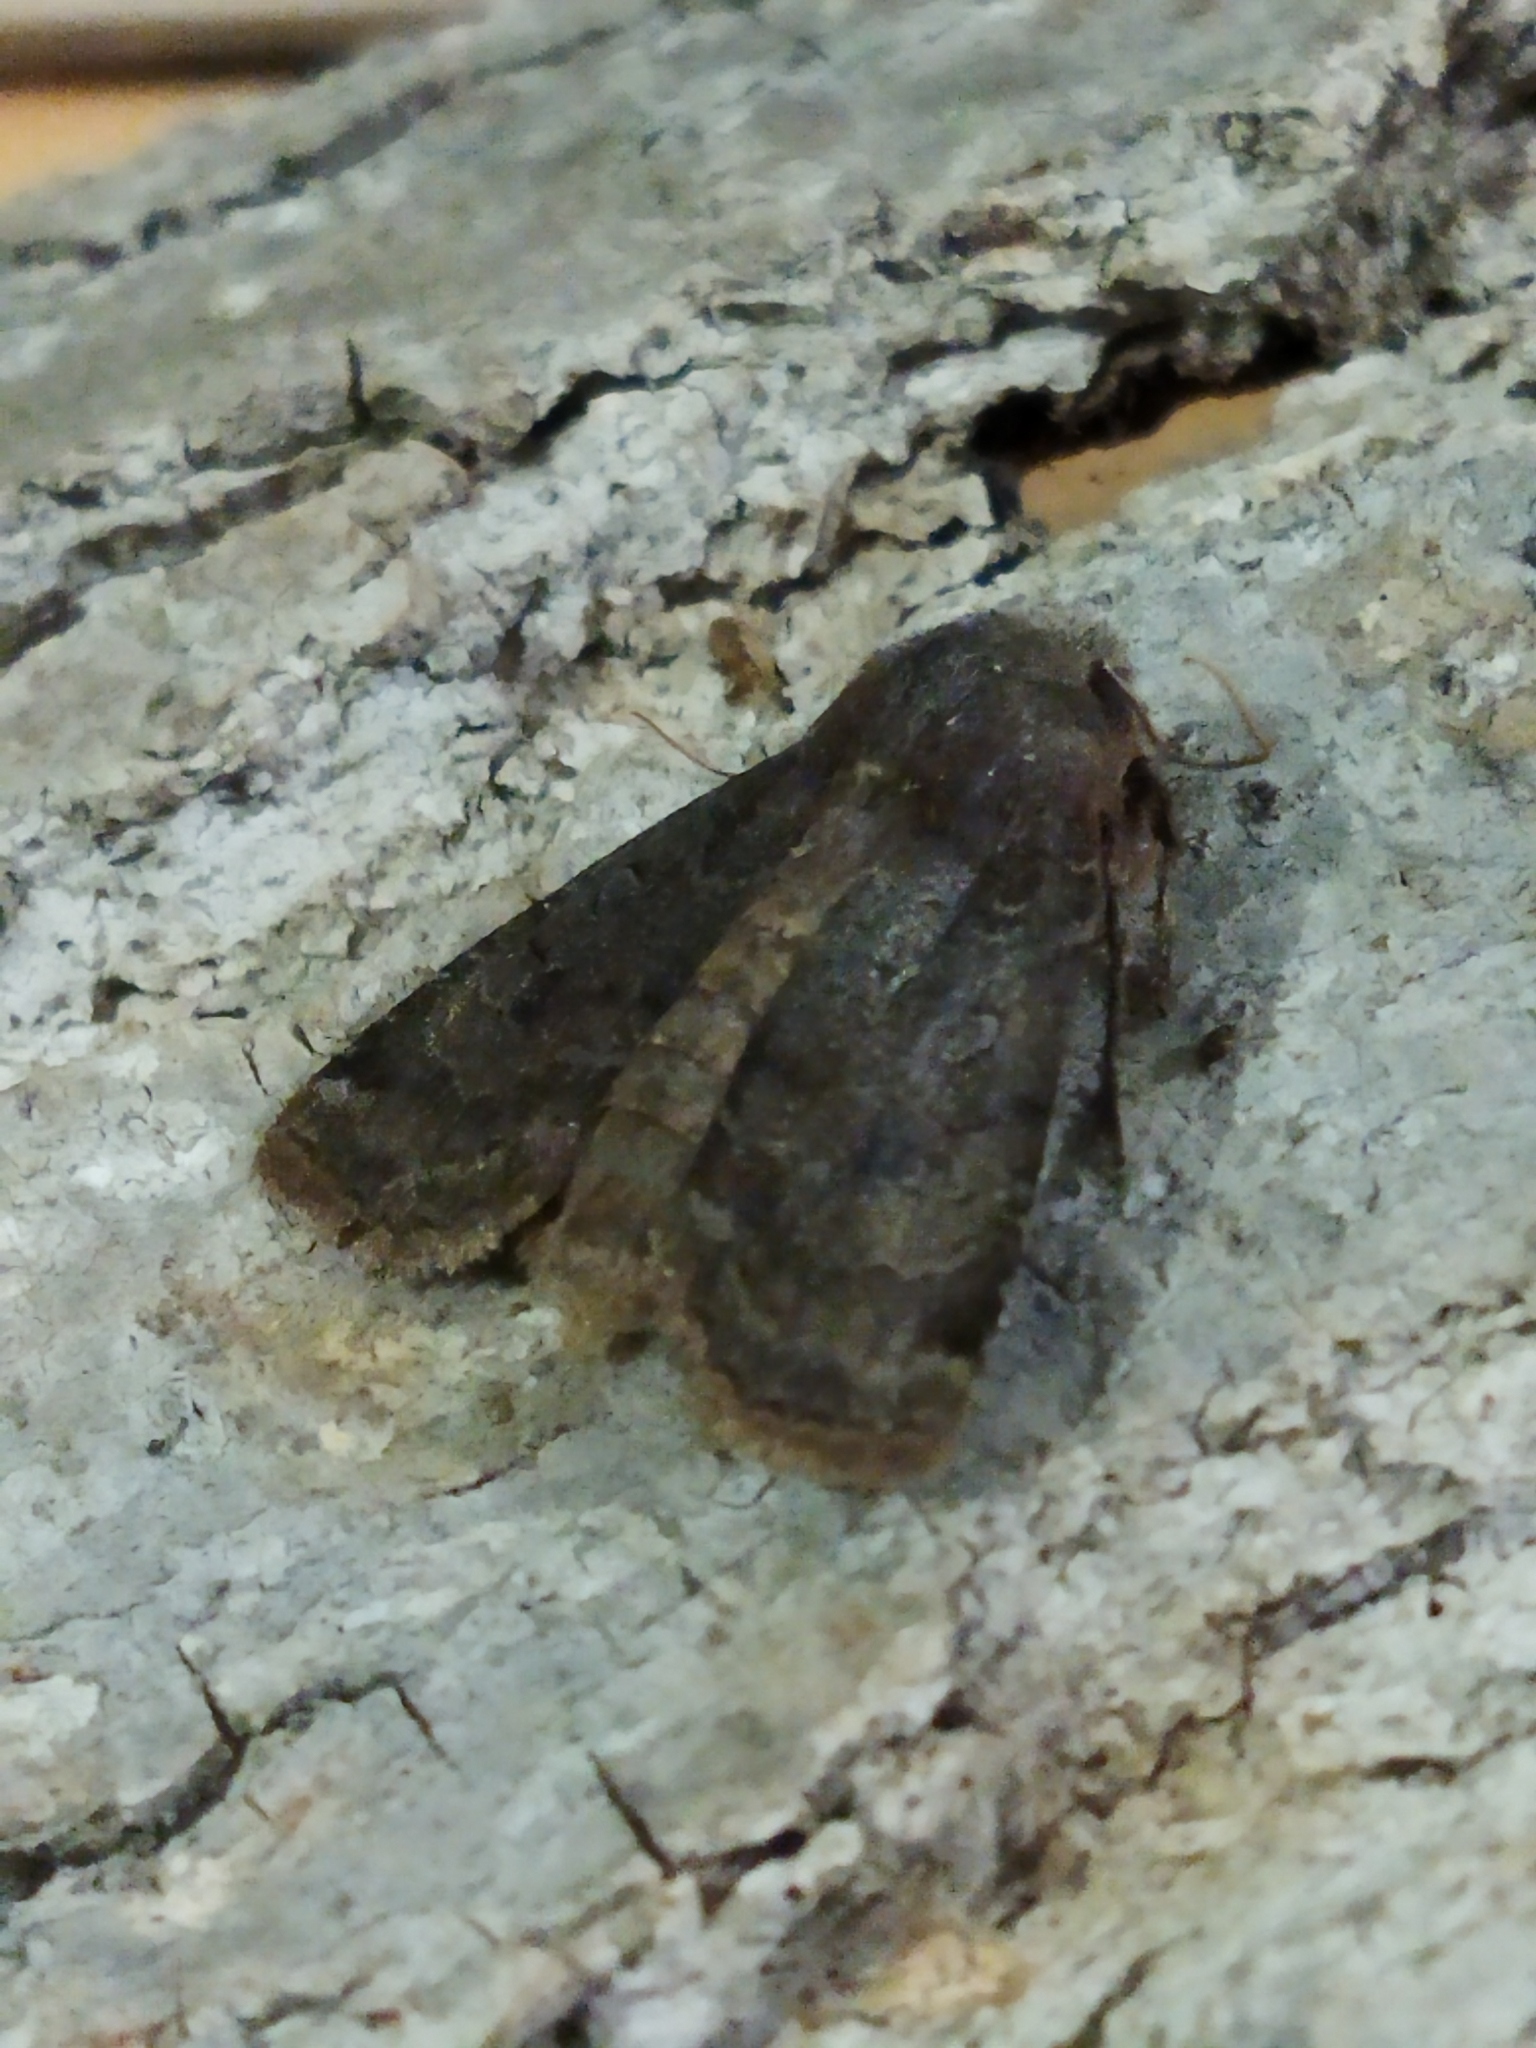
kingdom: Animalia
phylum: Arthropoda
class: Insecta
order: Lepidoptera
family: Noctuidae
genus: Conistra
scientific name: Conistra vaccinii
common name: Chestnut
